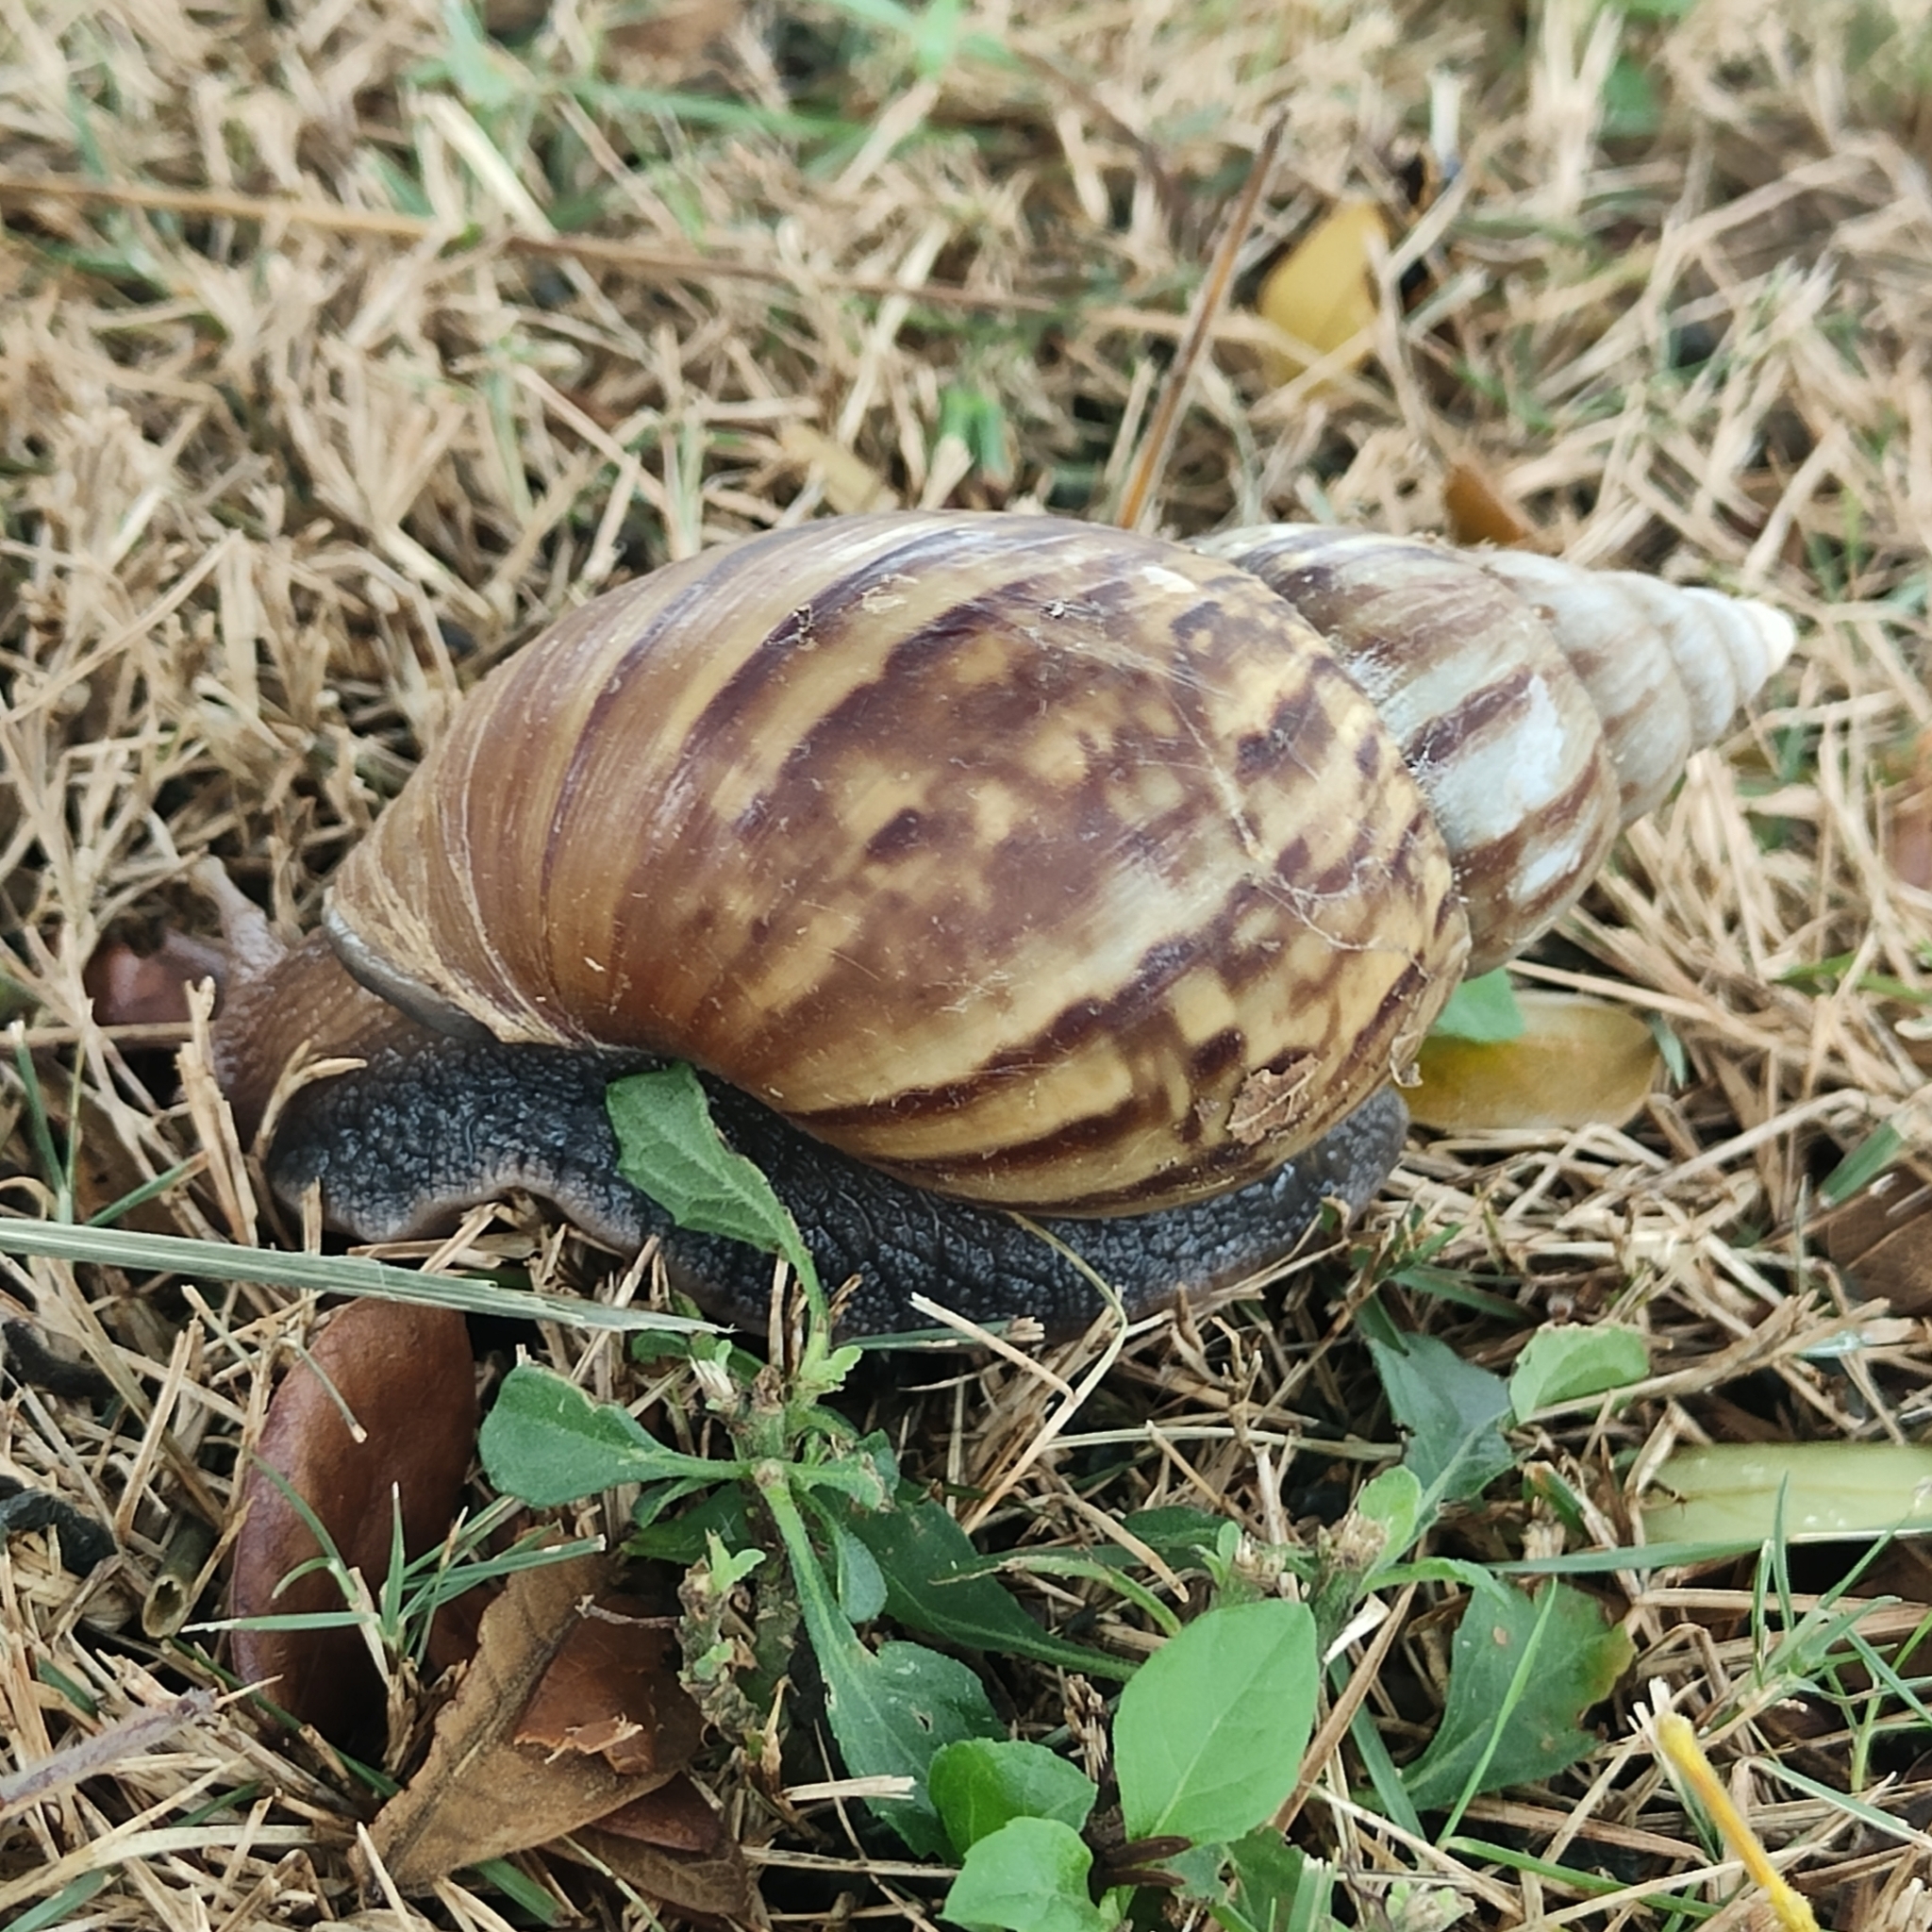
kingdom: Animalia
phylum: Mollusca
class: Gastropoda
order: Stylommatophora
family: Achatinidae
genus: Lissachatina
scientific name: Lissachatina fulica
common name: Giant african snail
